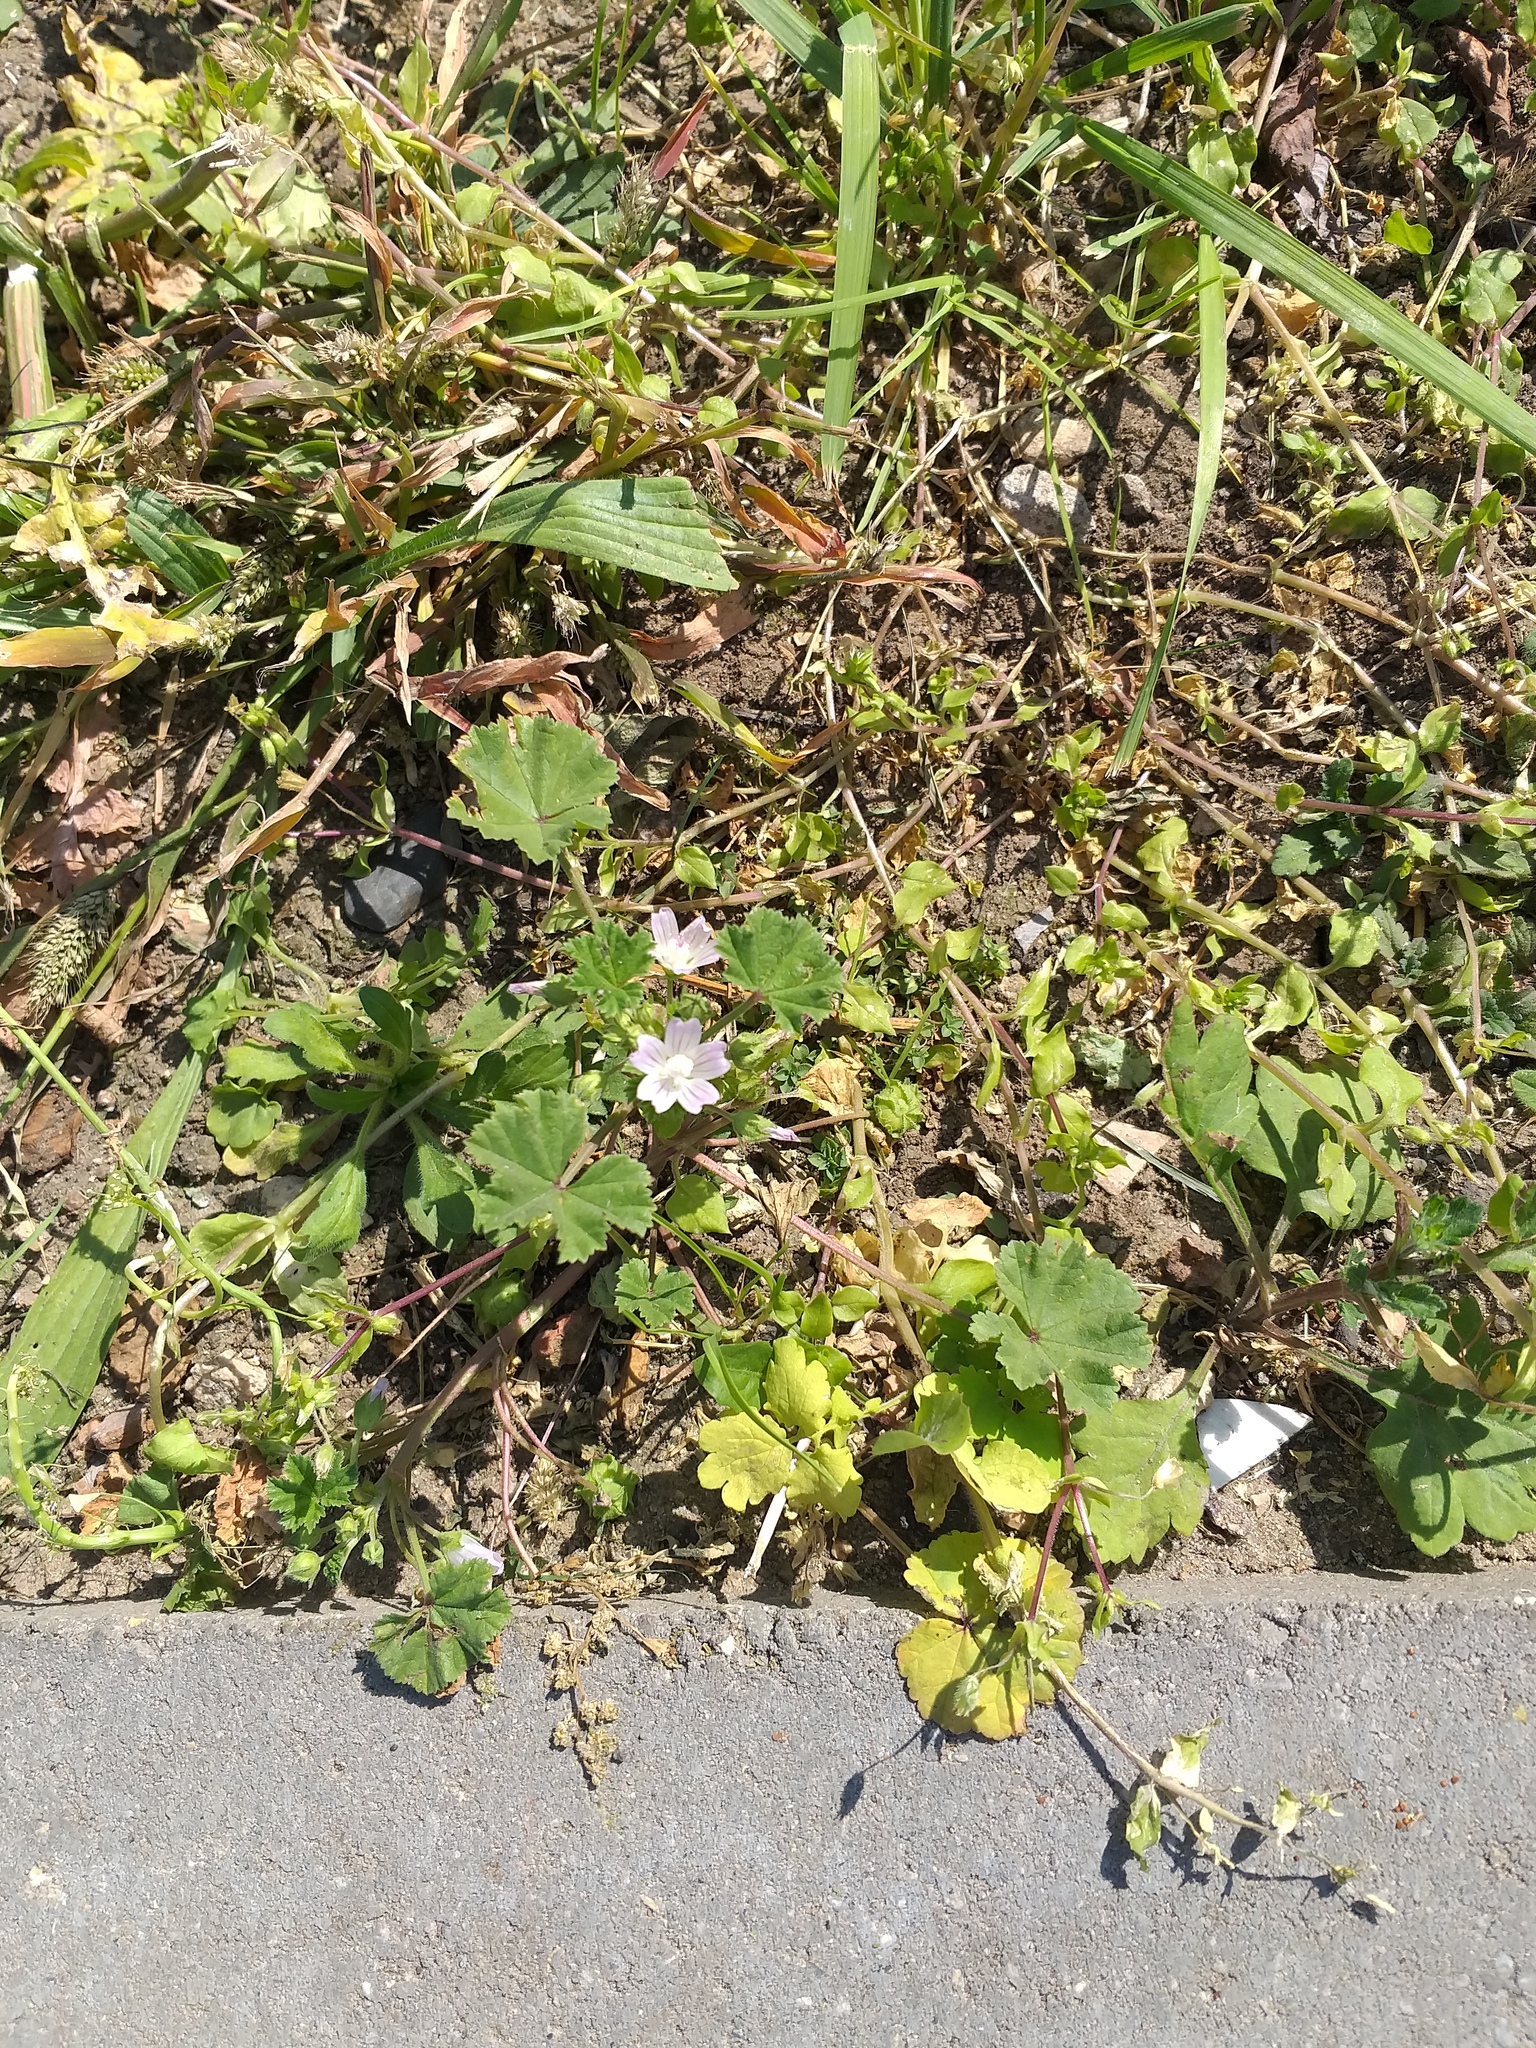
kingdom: Plantae
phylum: Tracheophyta
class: Magnoliopsida
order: Malvales
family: Malvaceae
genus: Malva
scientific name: Malva neglecta
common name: Common mallow
